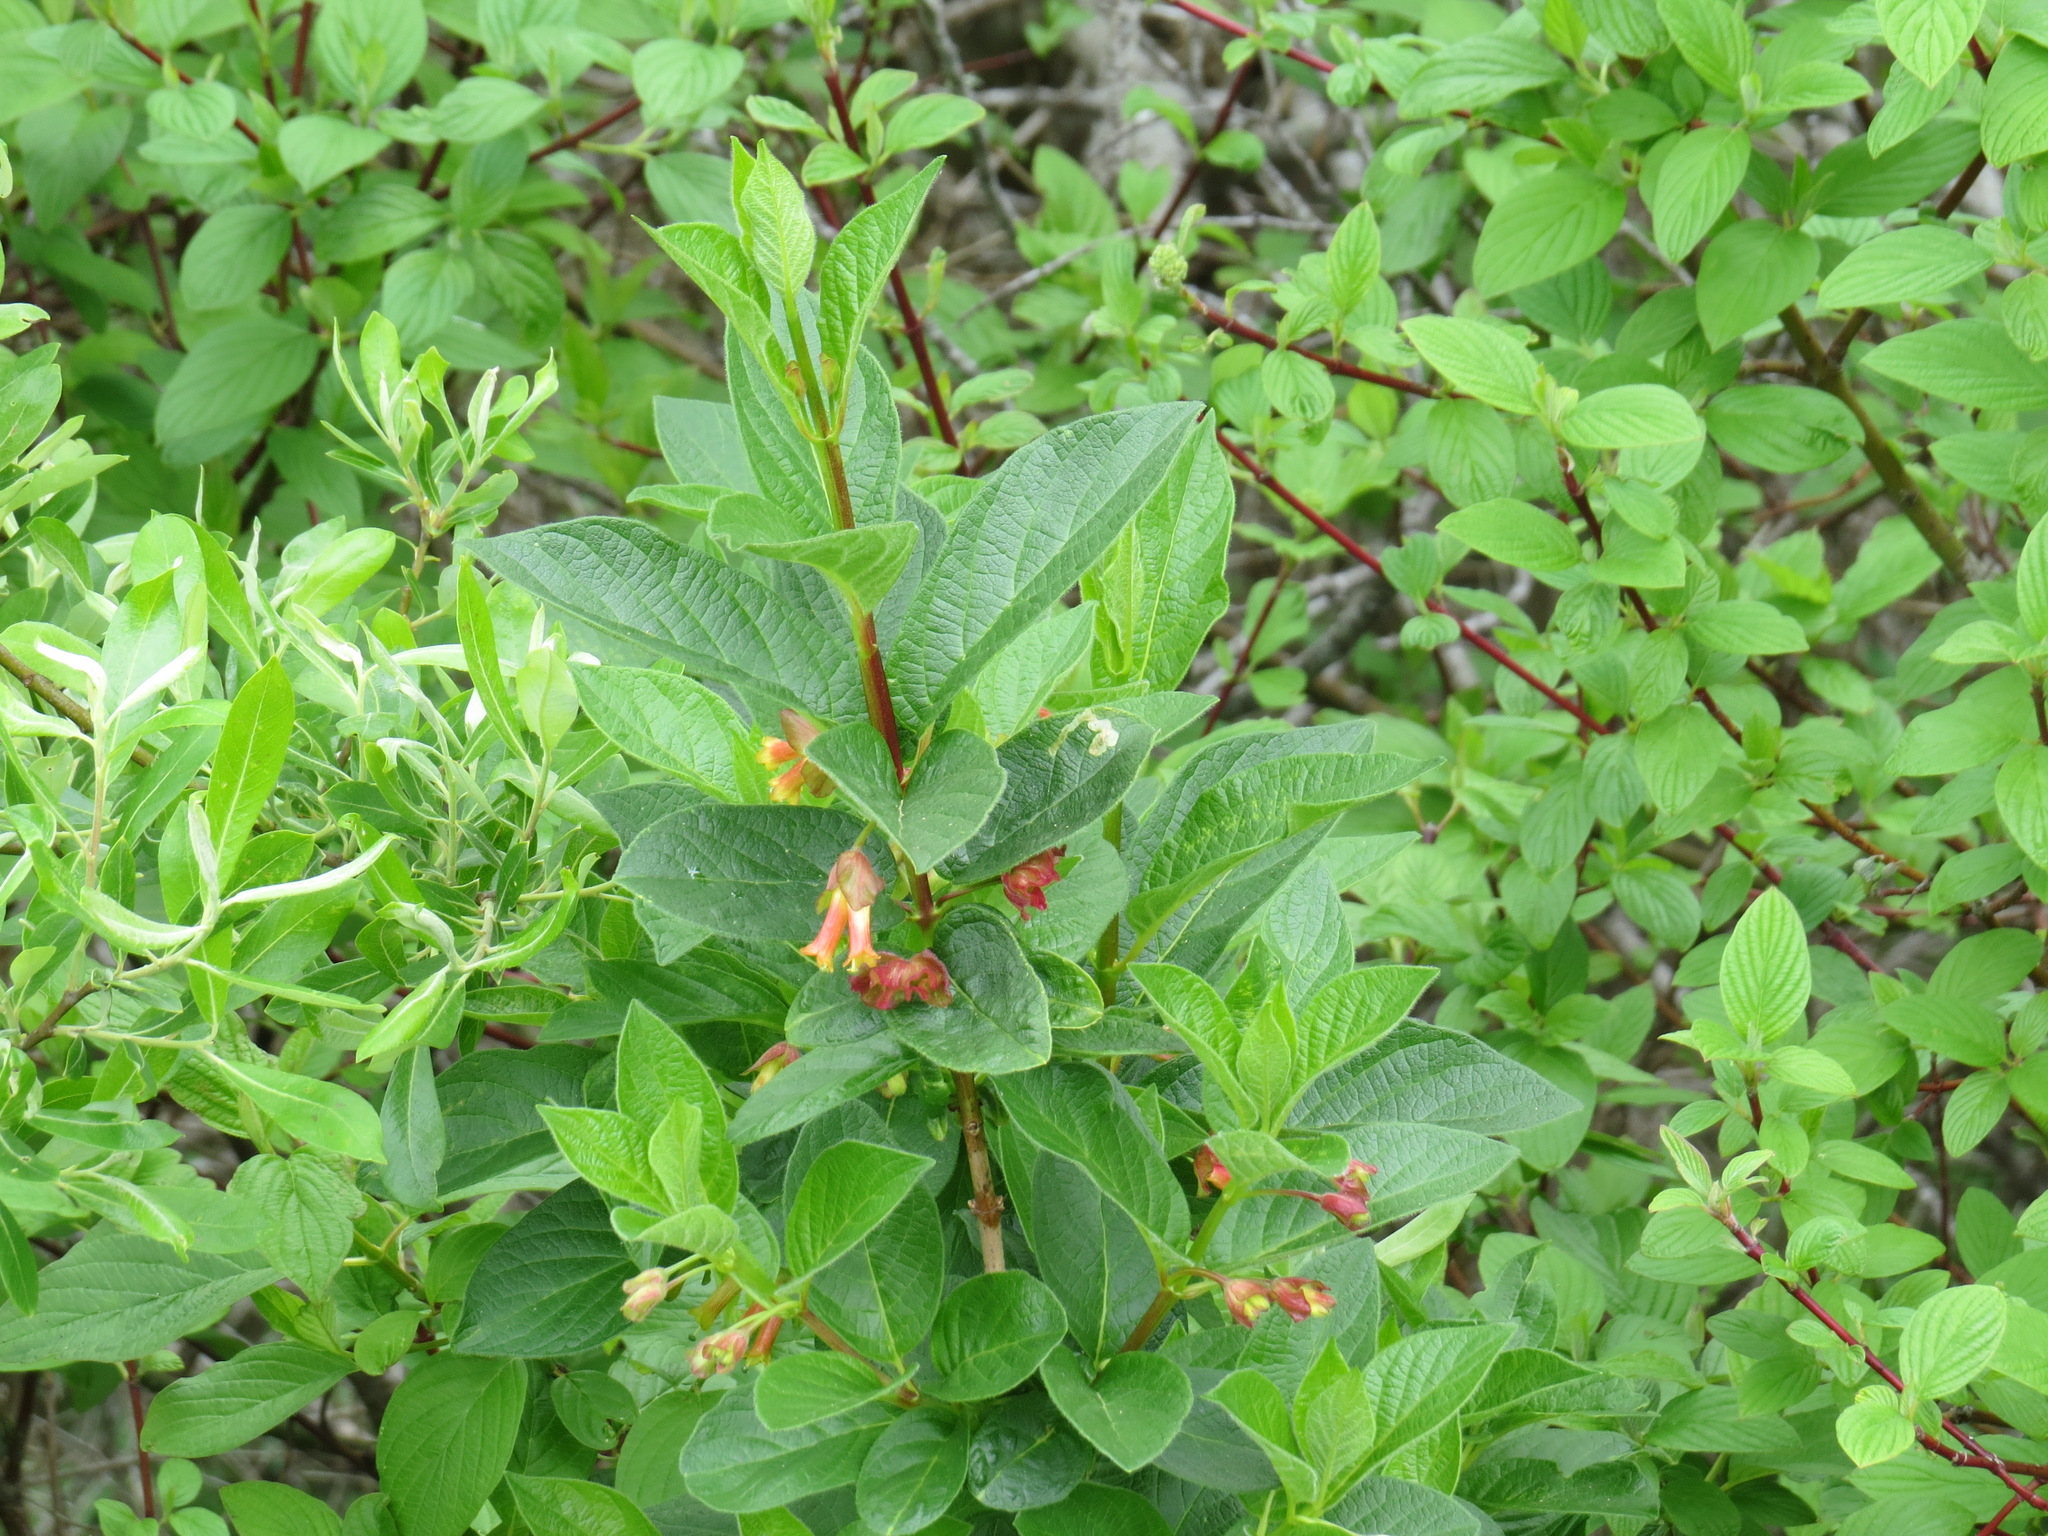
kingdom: Plantae
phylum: Tracheophyta
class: Magnoliopsida
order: Dipsacales
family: Caprifoliaceae
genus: Lonicera
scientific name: Lonicera involucrata
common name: Californian honeysuckle
